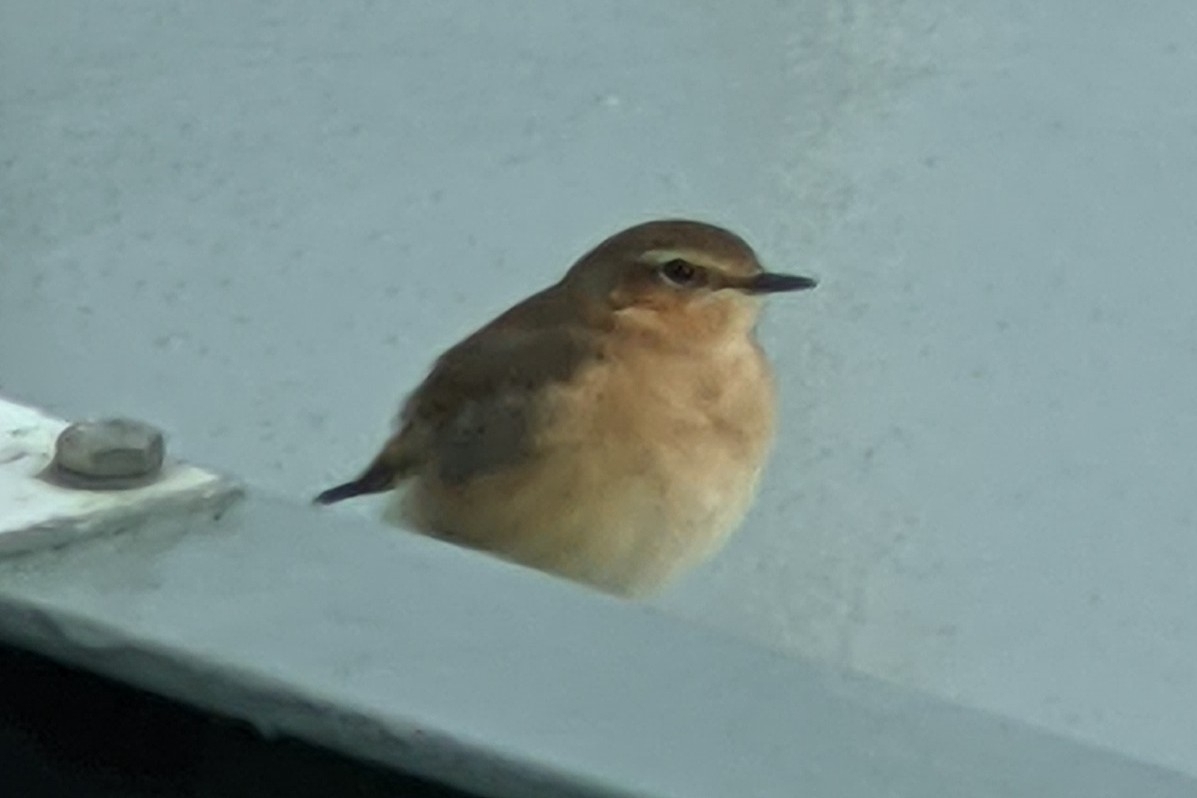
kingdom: Animalia
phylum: Chordata
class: Aves
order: Passeriformes
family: Muscicapidae
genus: Oenanthe
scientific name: Oenanthe oenanthe
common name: Northern wheatear
